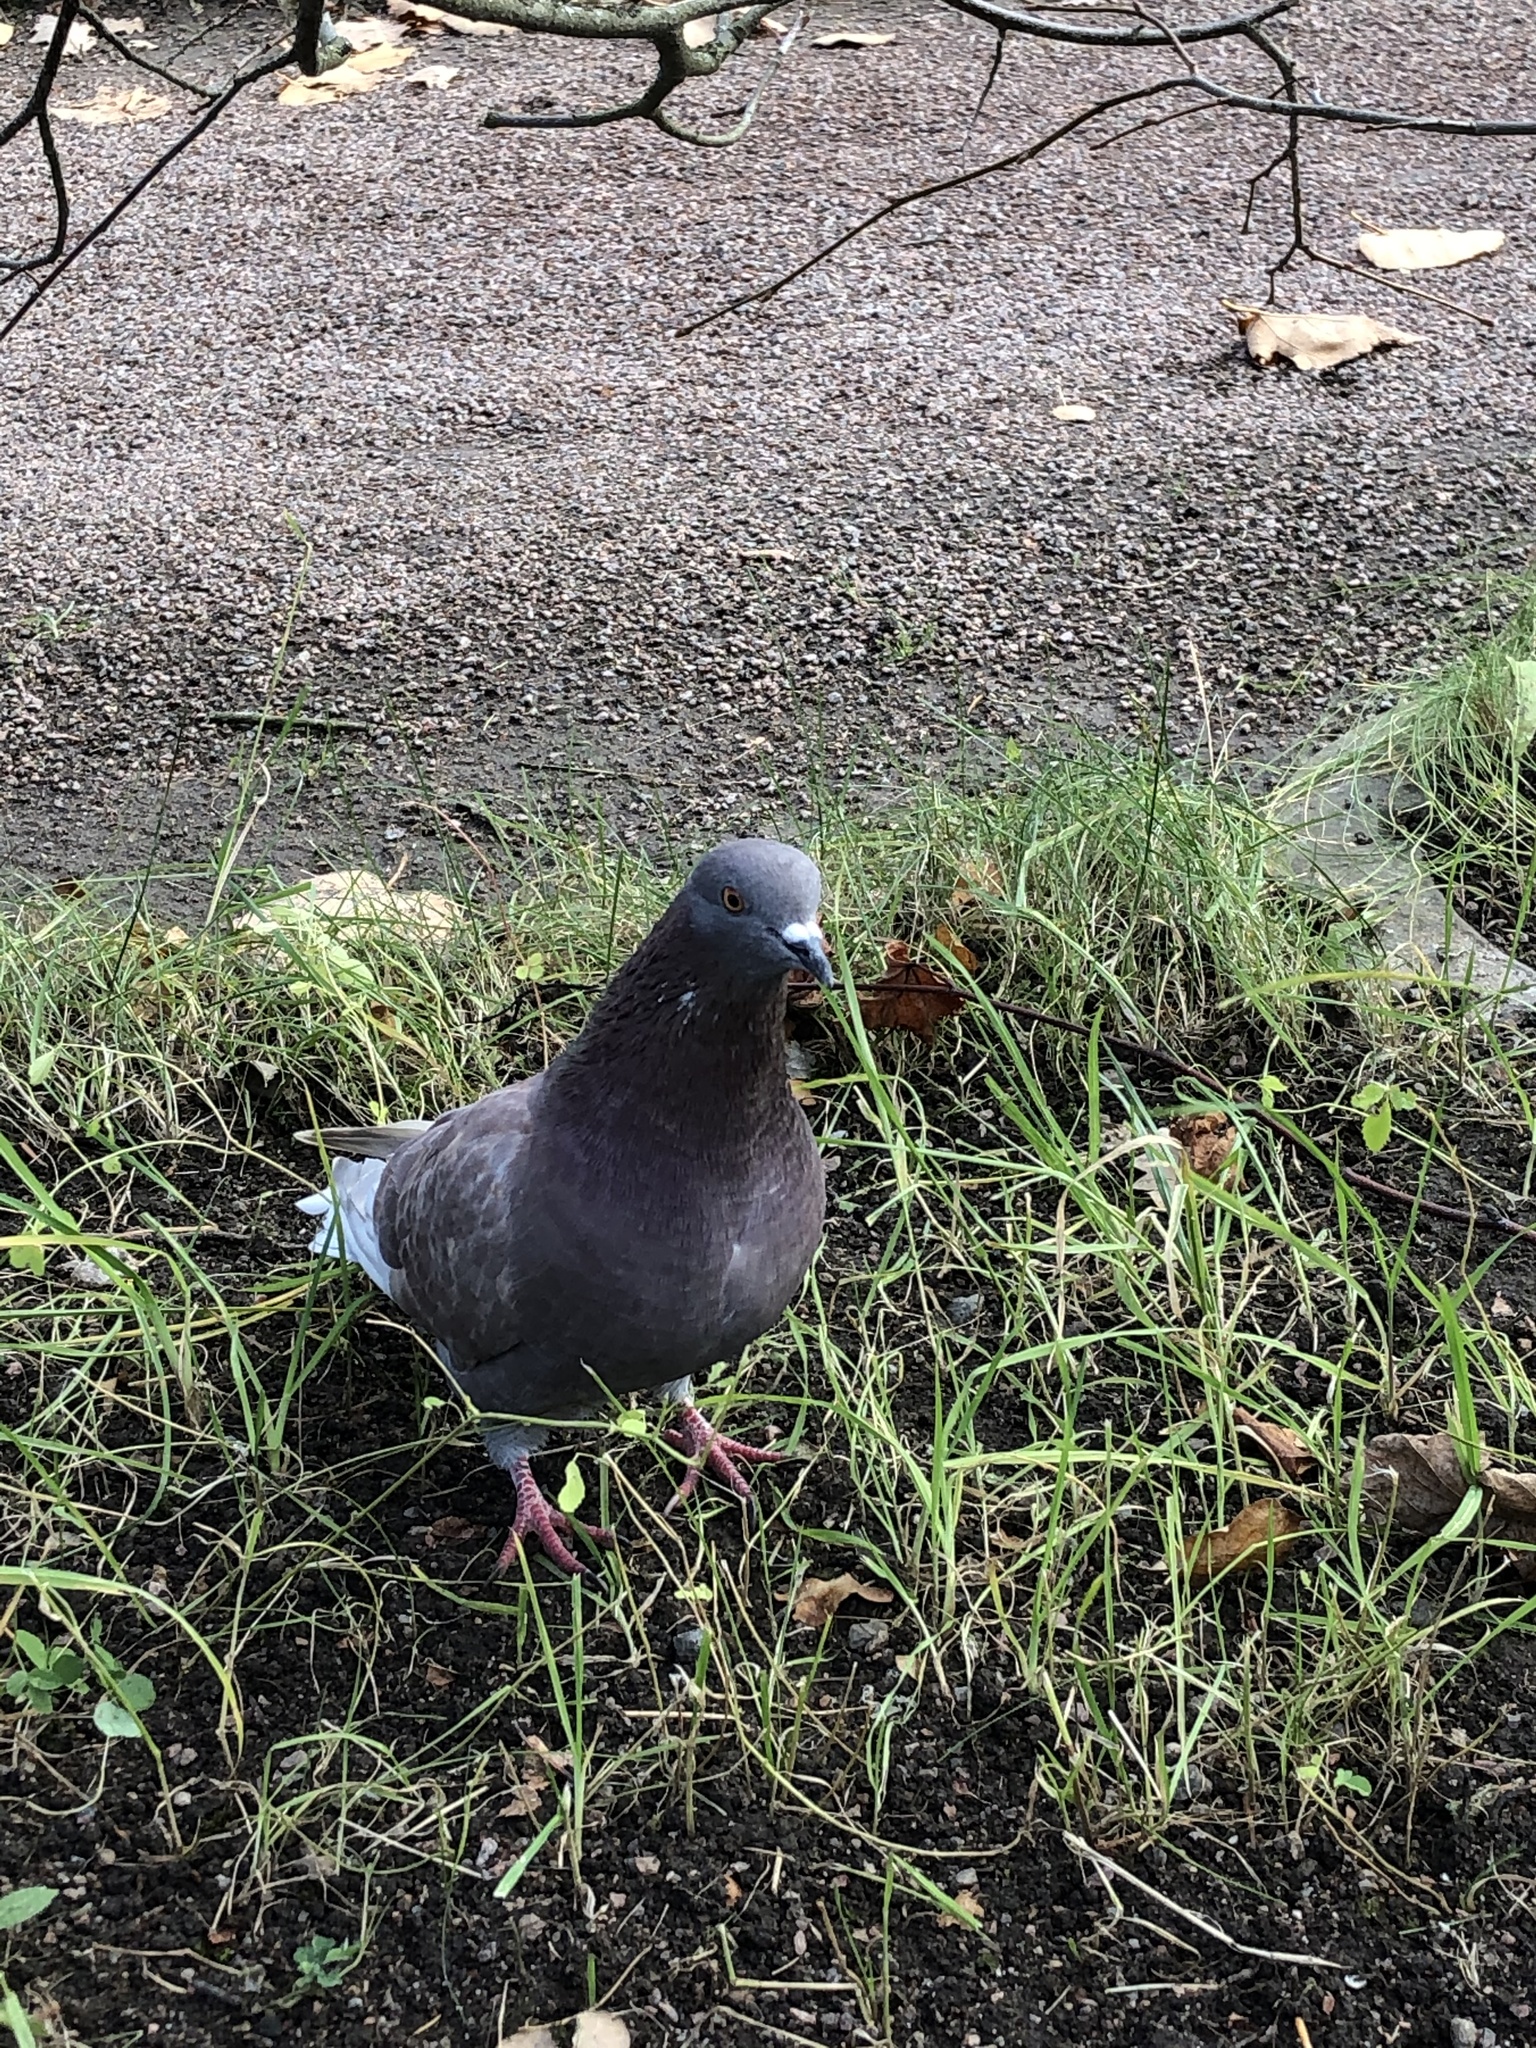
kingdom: Animalia
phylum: Chordata
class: Aves
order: Columbiformes
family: Columbidae
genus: Columba
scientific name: Columba livia
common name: Rock pigeon
